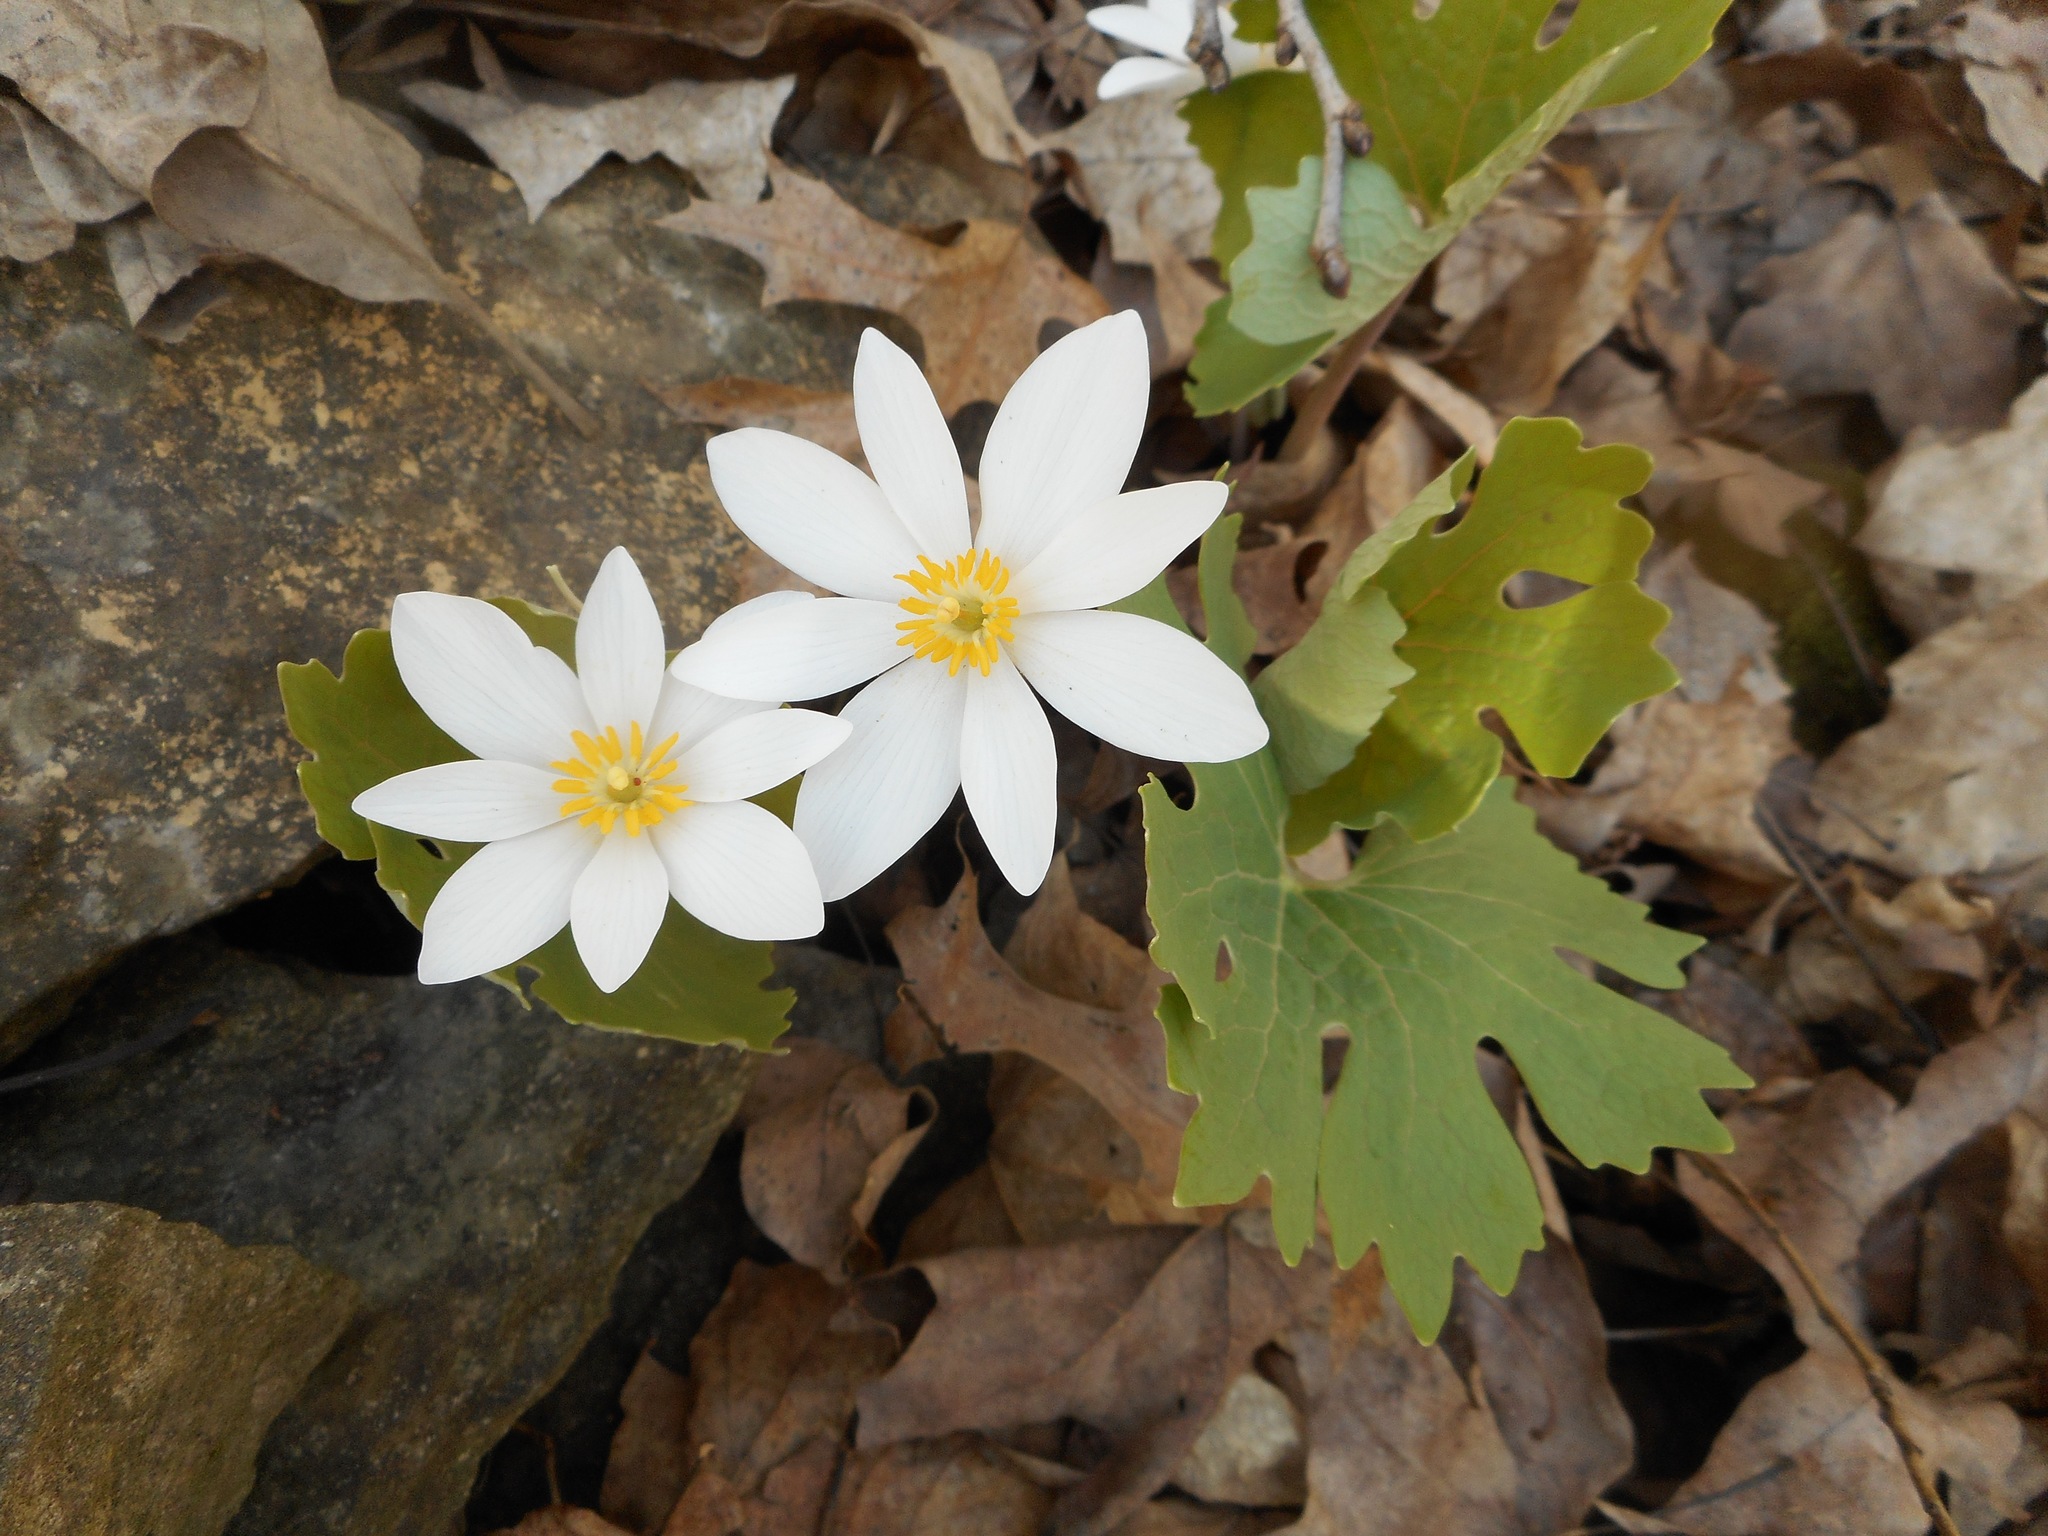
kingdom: Plantae
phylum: Tracheophyta
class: Magnoliopsida
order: Ranunculales
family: Papaveraceae
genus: Sanguinaria
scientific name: Sanguinaria canadensis
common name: Bloodroot
